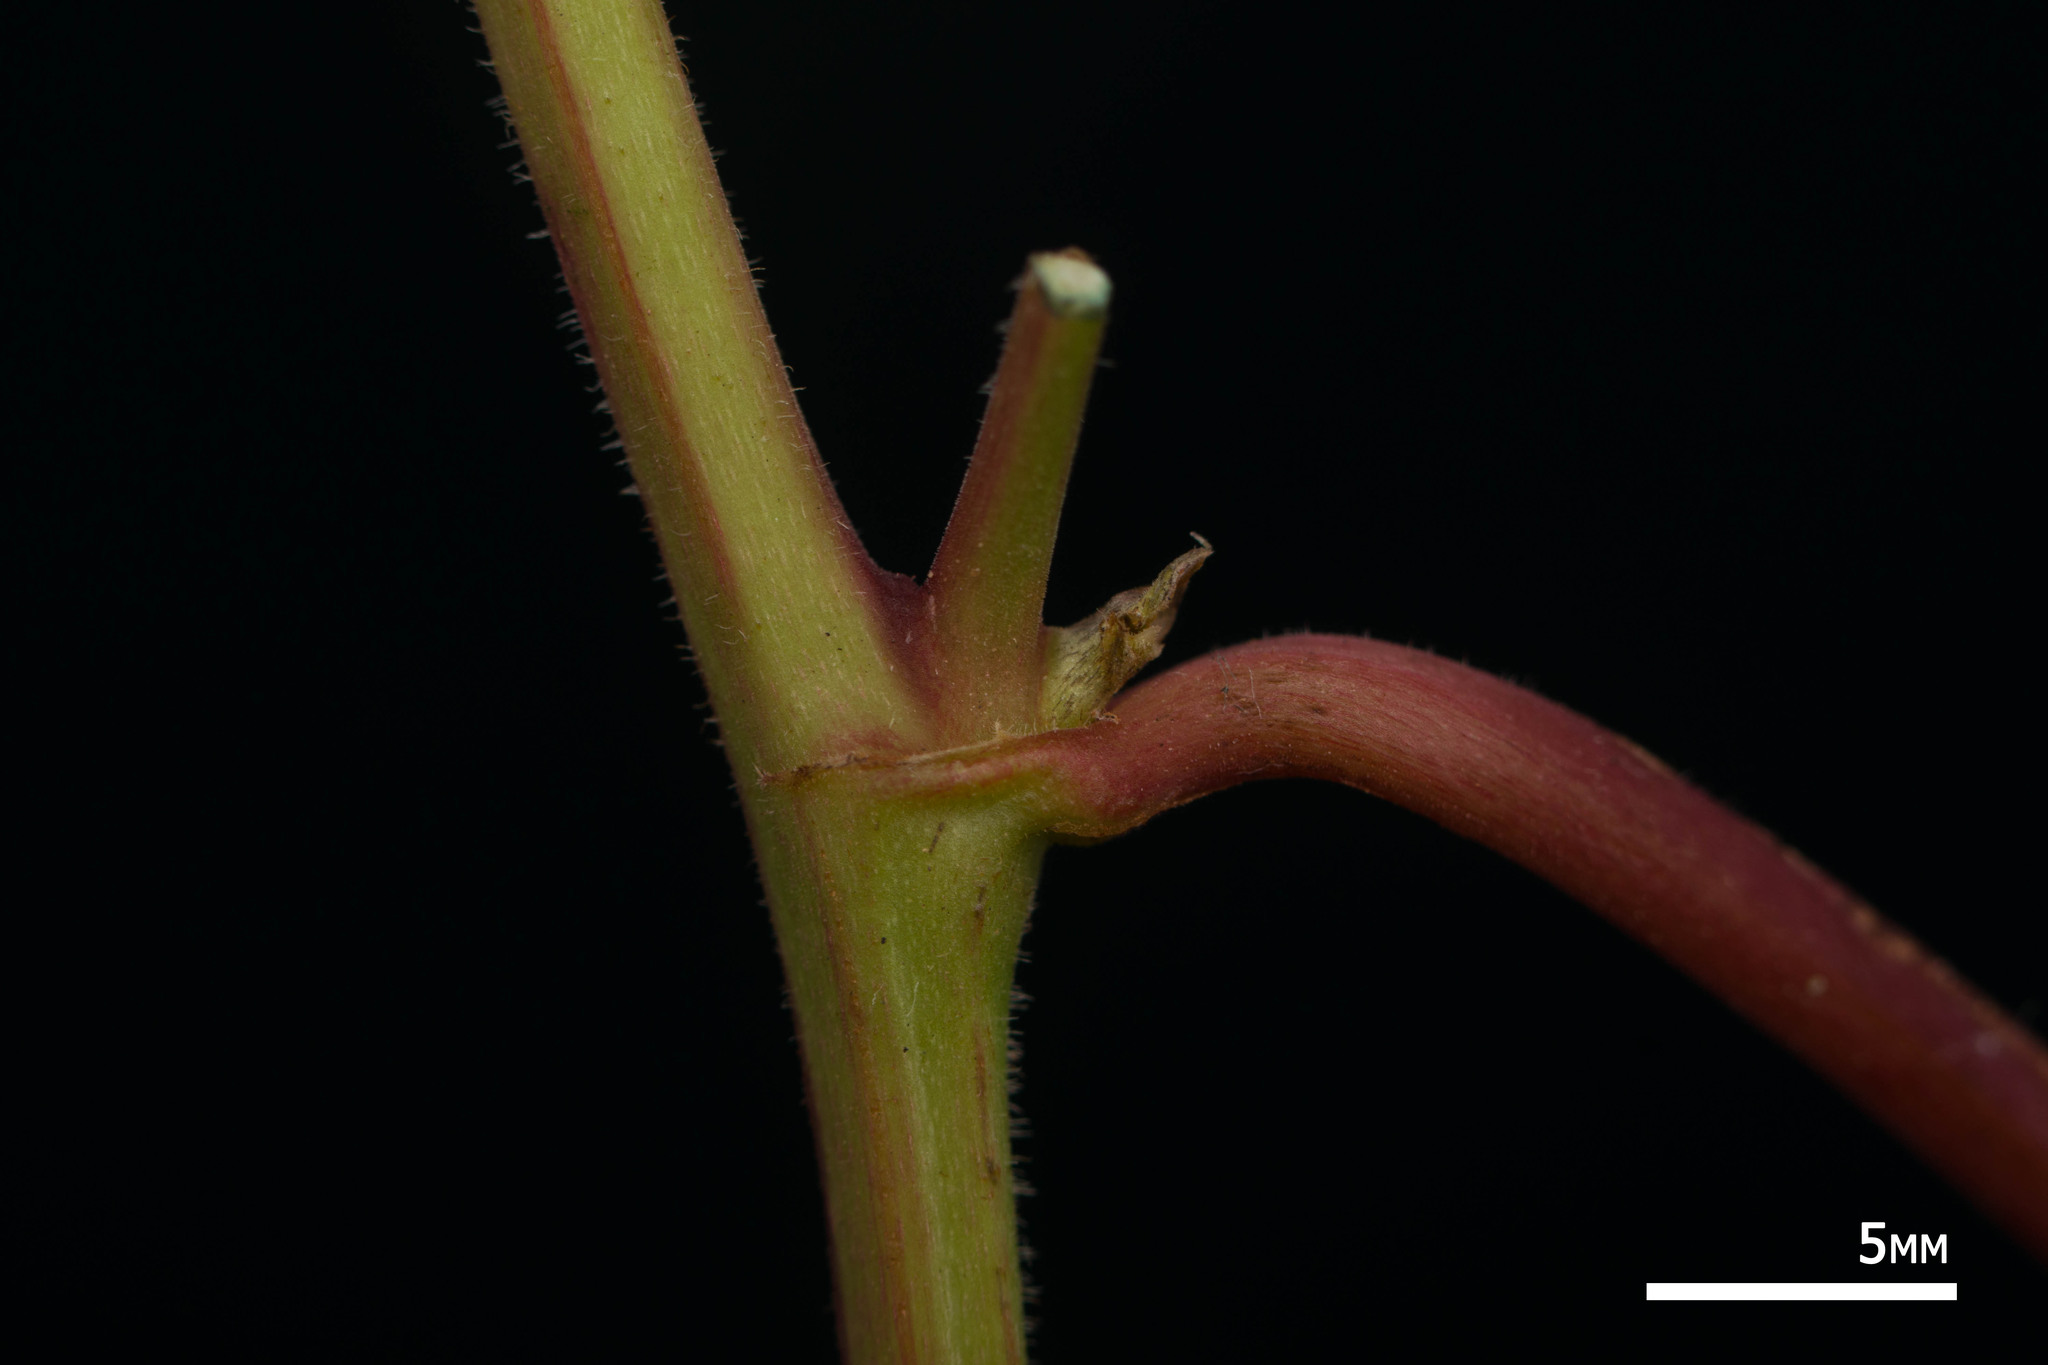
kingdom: Plantae
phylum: Tracheophyta
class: Magnoliopsida
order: Caryophyllales
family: Polygonaceae
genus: Antigonon
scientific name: Antigonon leptopus
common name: Coral vine
